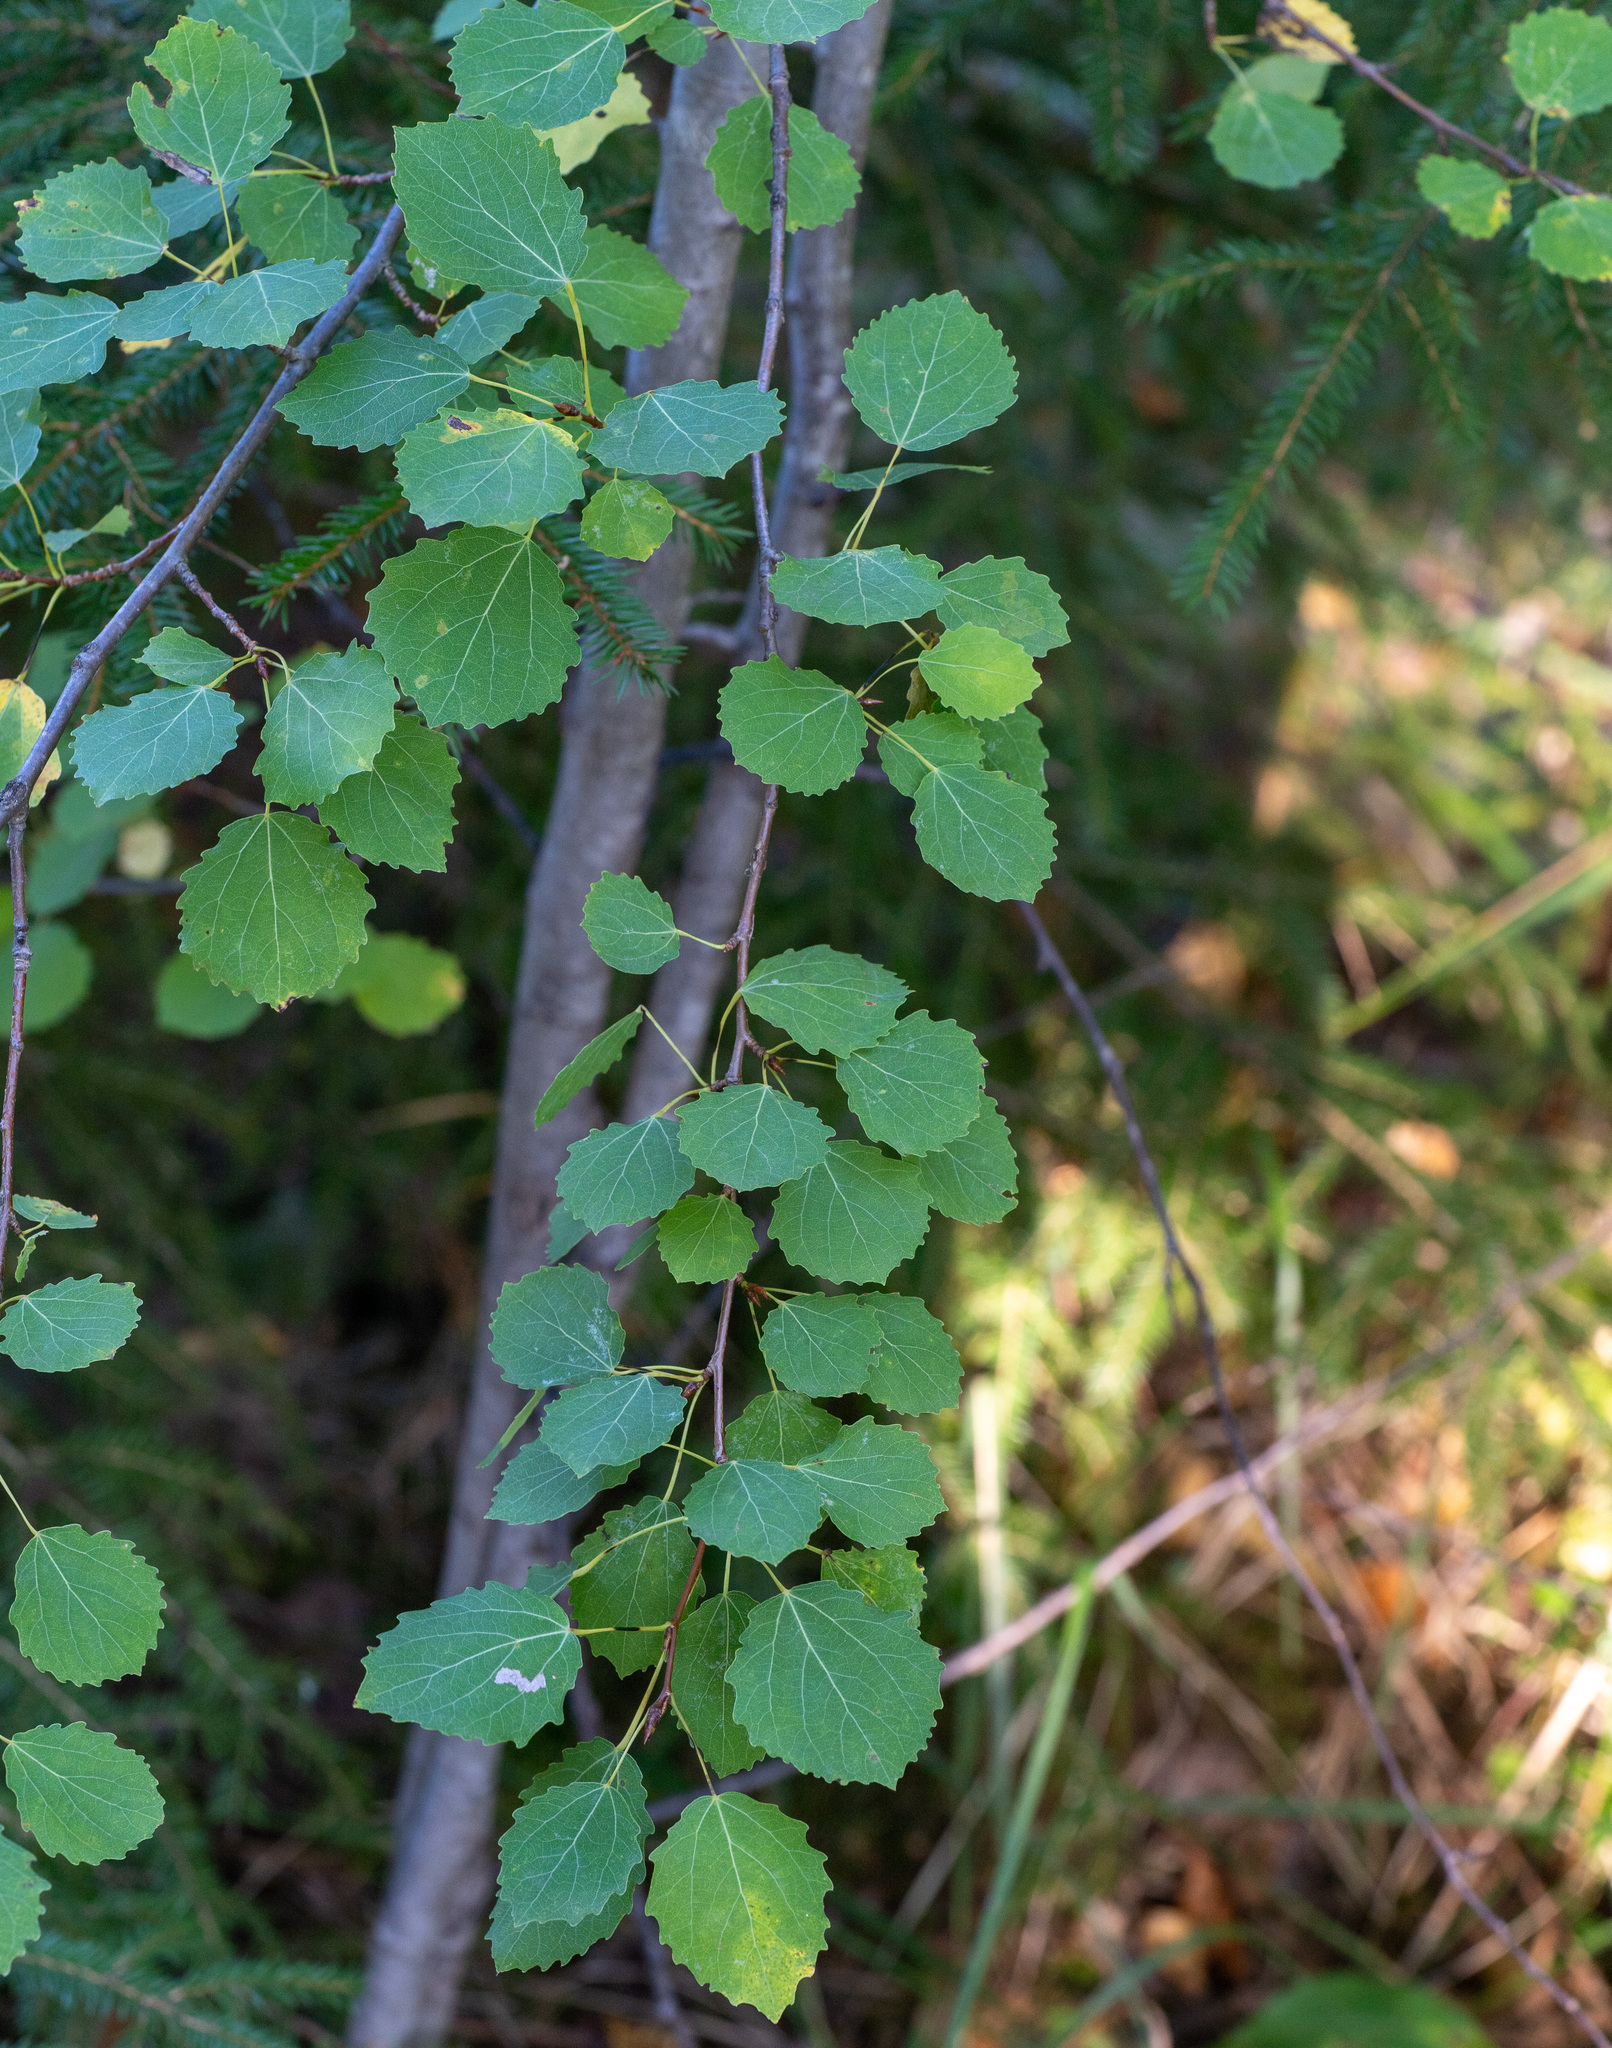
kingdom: Plantae
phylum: Tracheophyta
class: Magnoliopsida
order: Malpighiales
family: Salicaceae
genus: Populus
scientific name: Populus tremula
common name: European aspen
